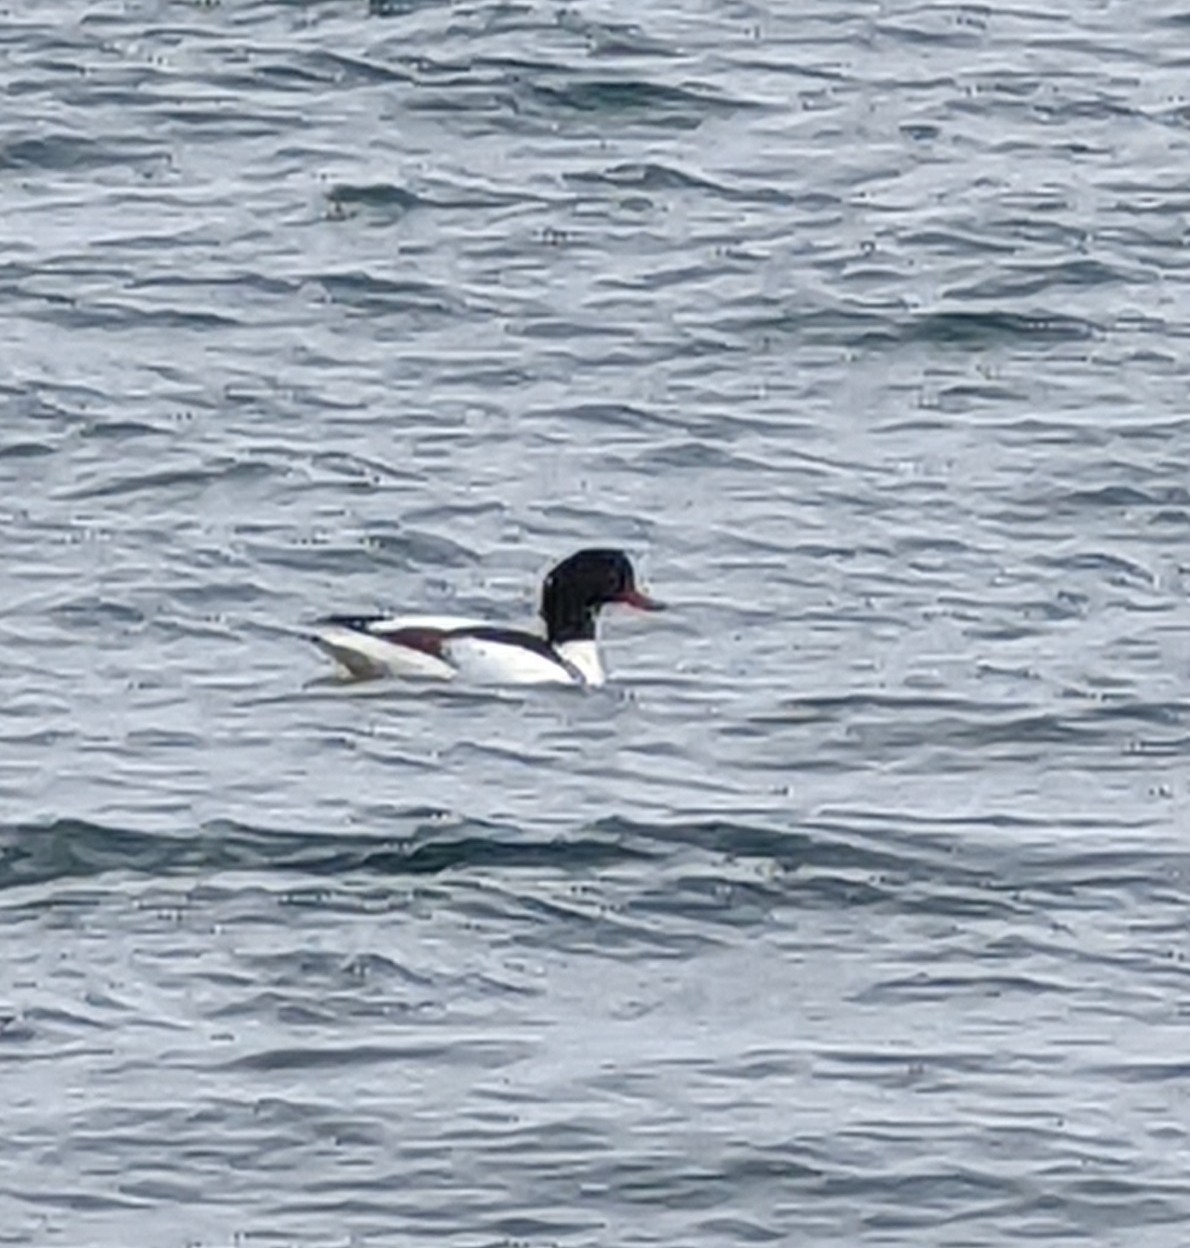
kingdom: Animalia
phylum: Chordata
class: Aves
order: Anseriformes
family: Anatidae
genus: Tadorna
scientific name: Tadorna tadorna
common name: Common shelduck
